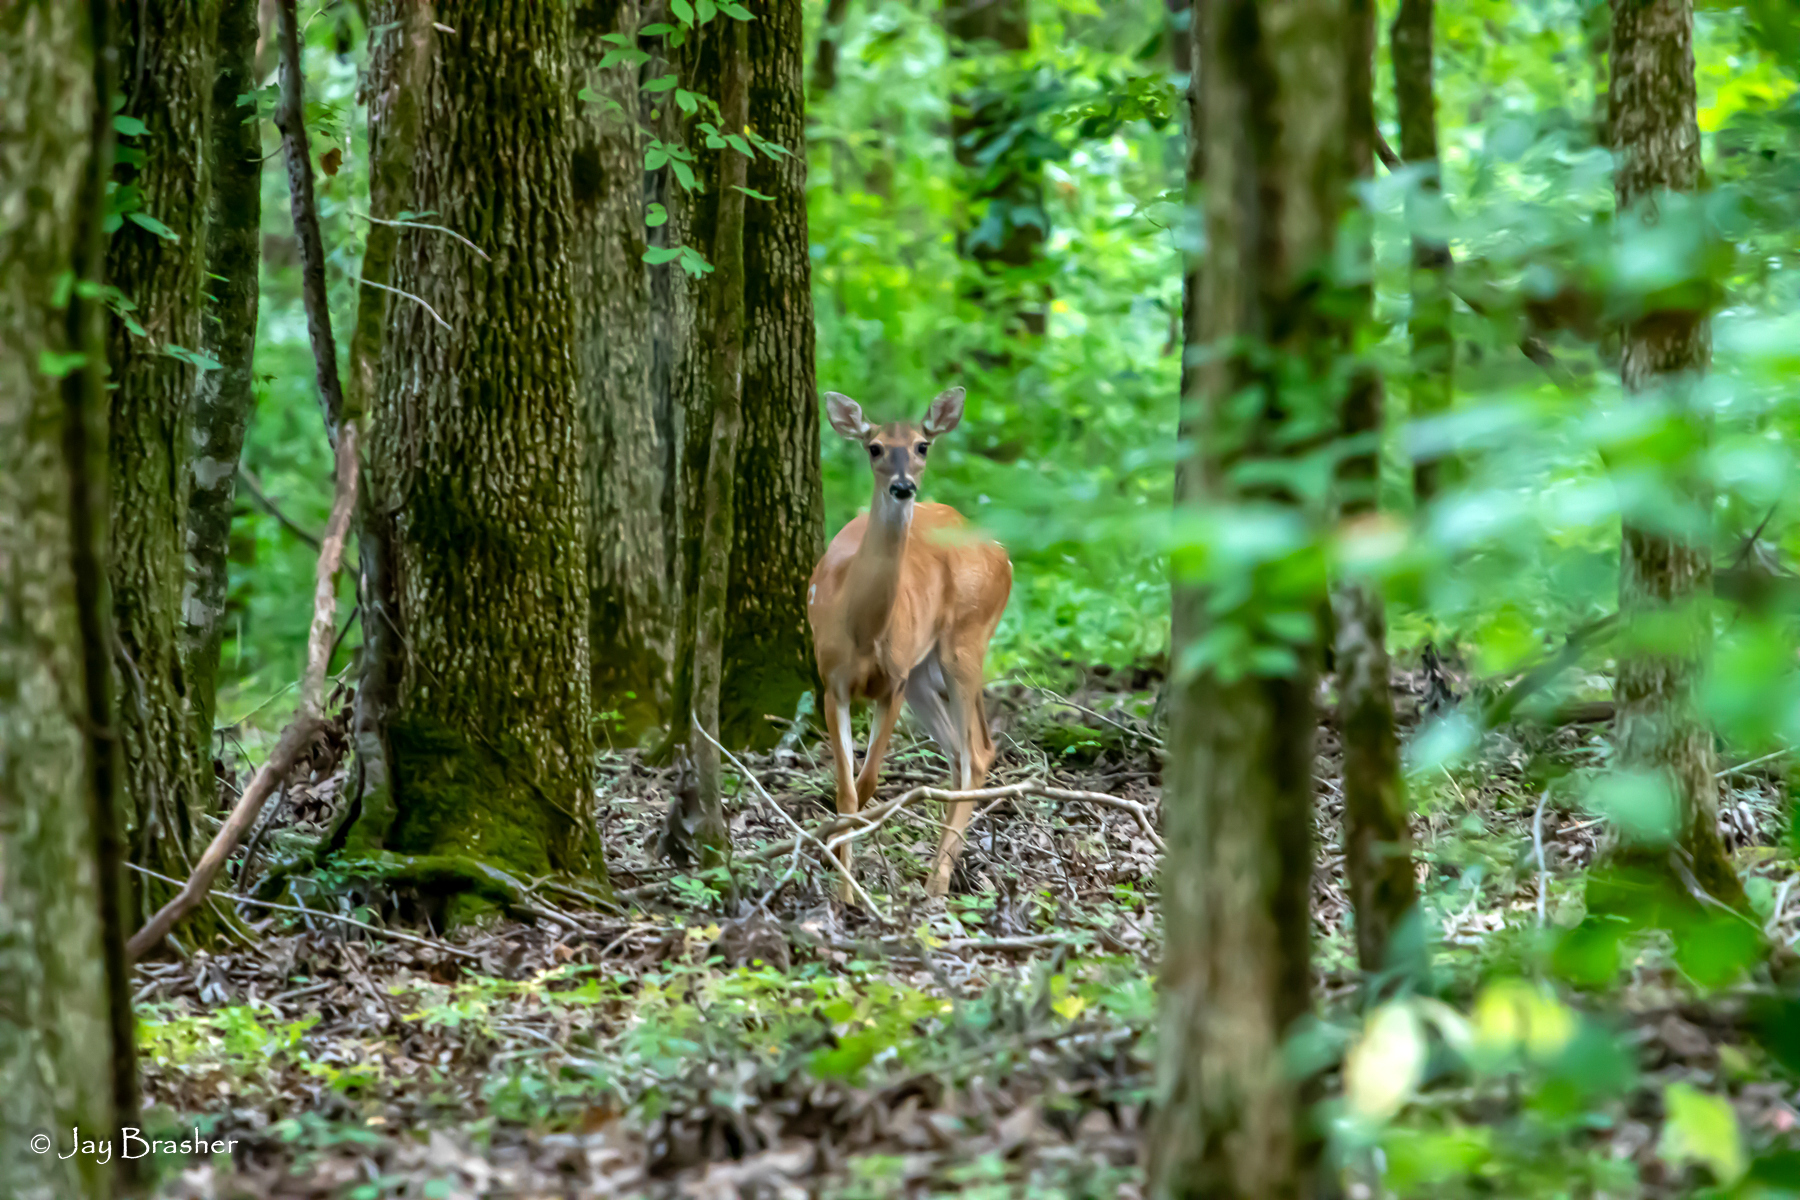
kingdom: Animalia
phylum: Chordata
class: Mammalia
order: Artiodactyla
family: Cervidae
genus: Odocoileus
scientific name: Odocoileus virginianus
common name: White-tailed deer
